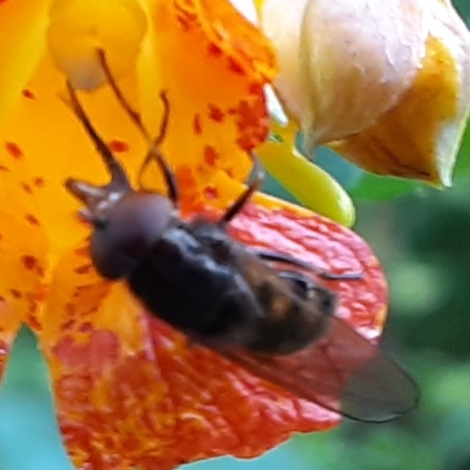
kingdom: Animalia
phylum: Arthropoda
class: Insecta
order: Diptera
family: Syrphidae
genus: Rhingia
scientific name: Rhingia nasica
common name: American snout fly
